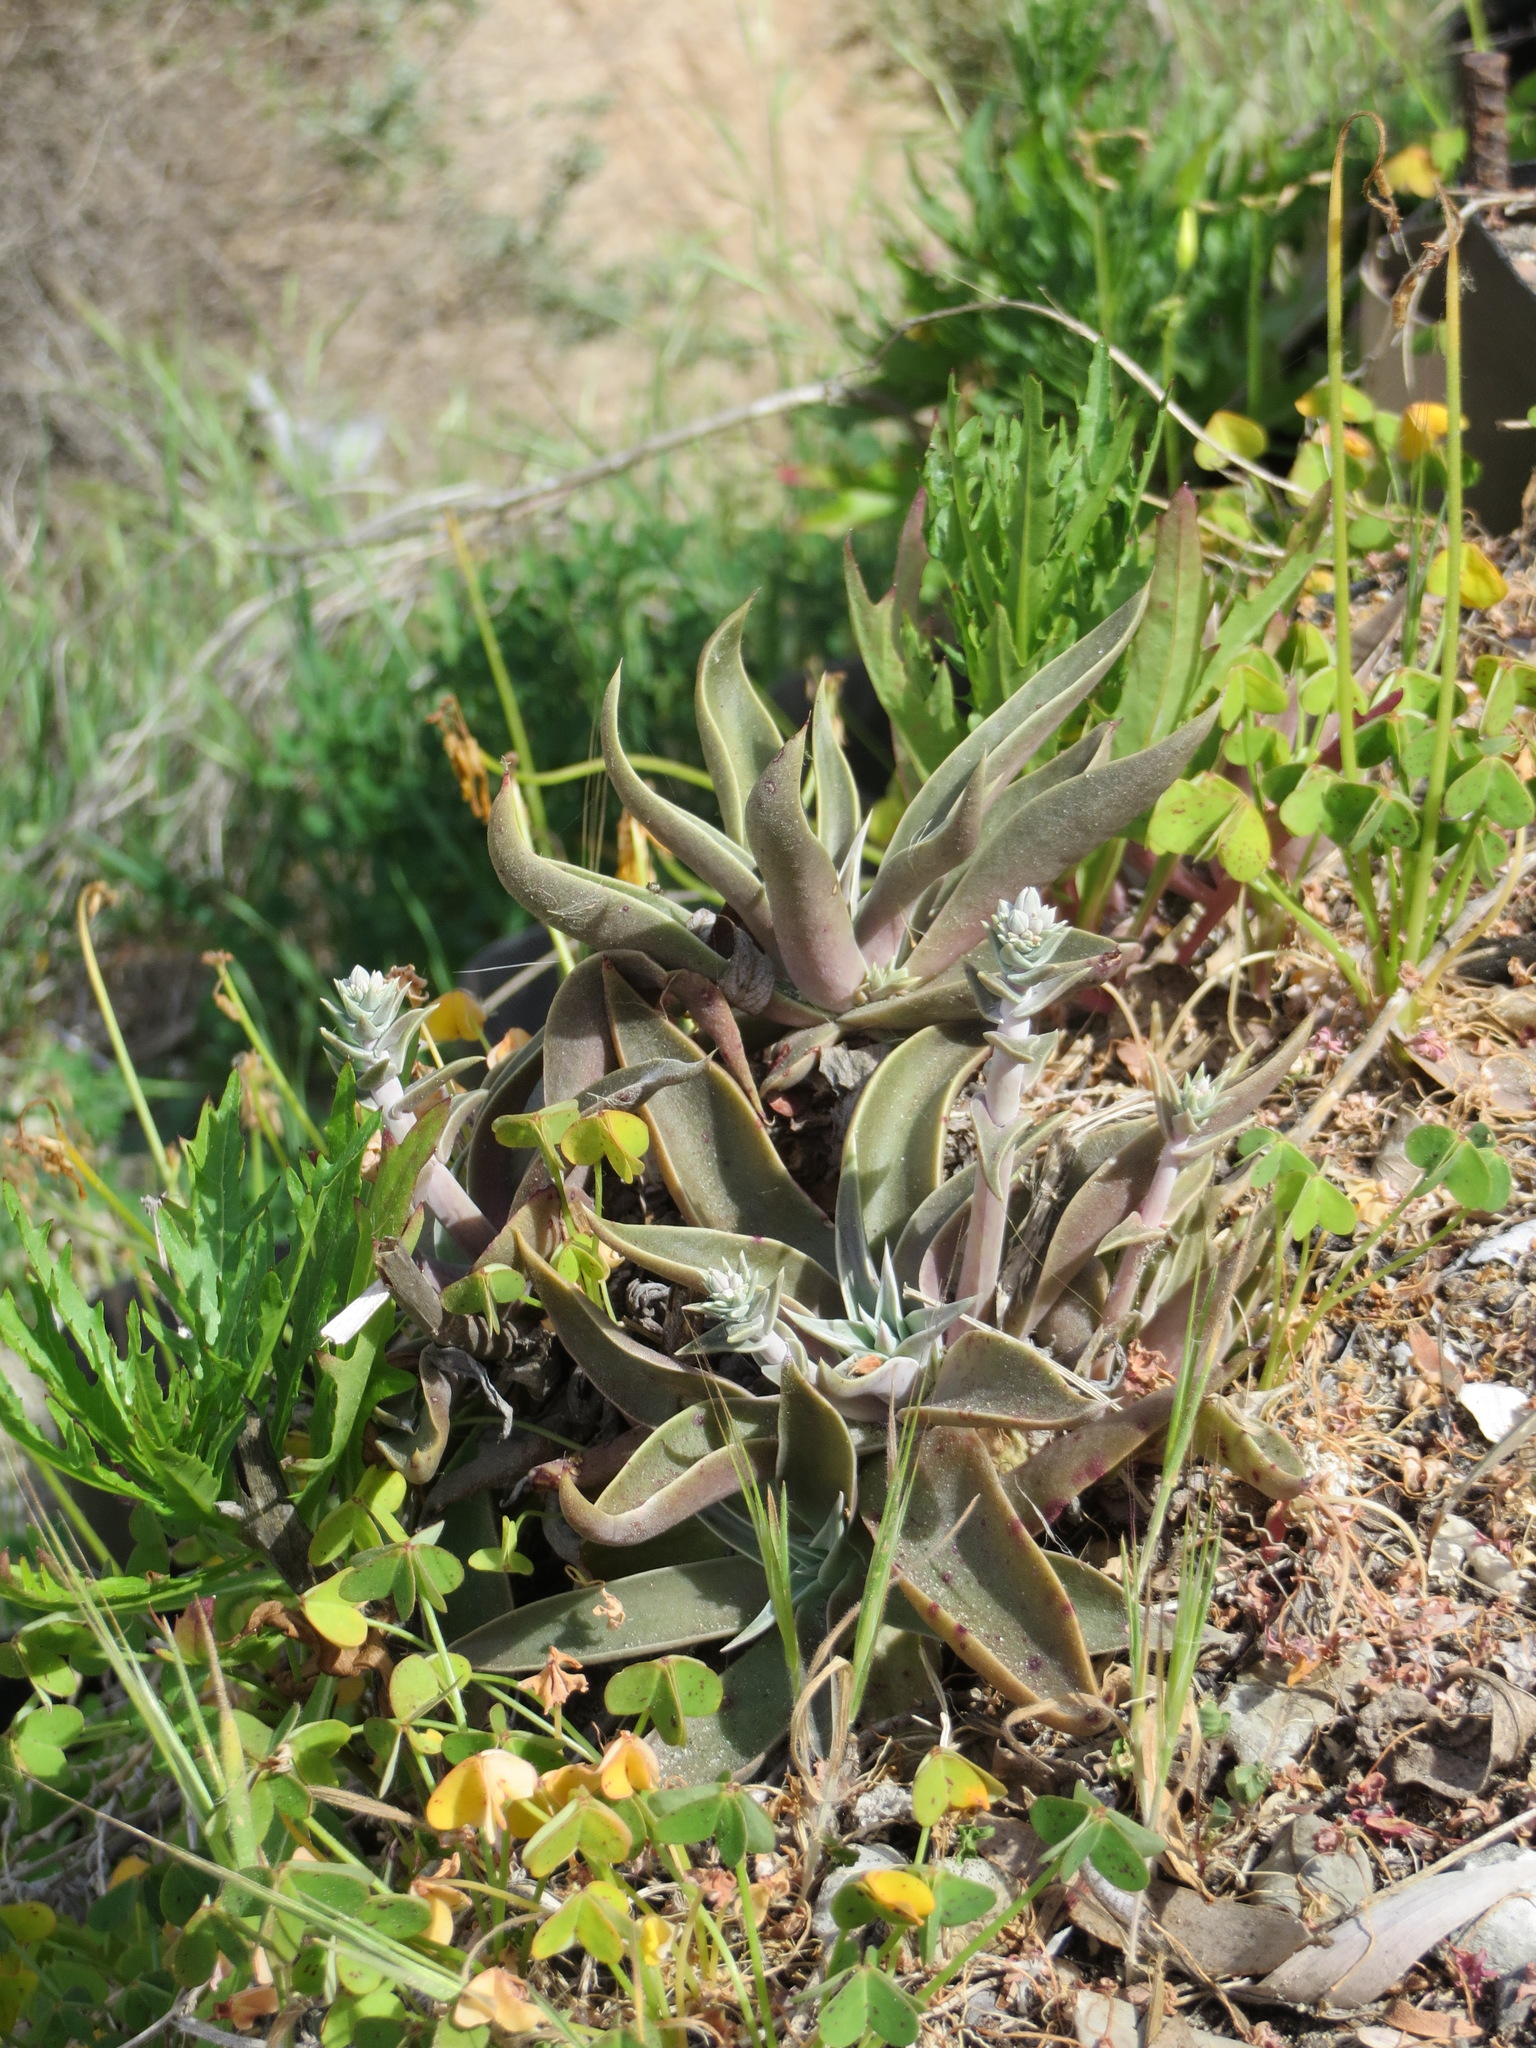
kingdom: Plantae
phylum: Tracheophyta
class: Magnoliopsida
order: Saxifragales
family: Crassulaceae
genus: Dudleya
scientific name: Dudleya lanceolata
